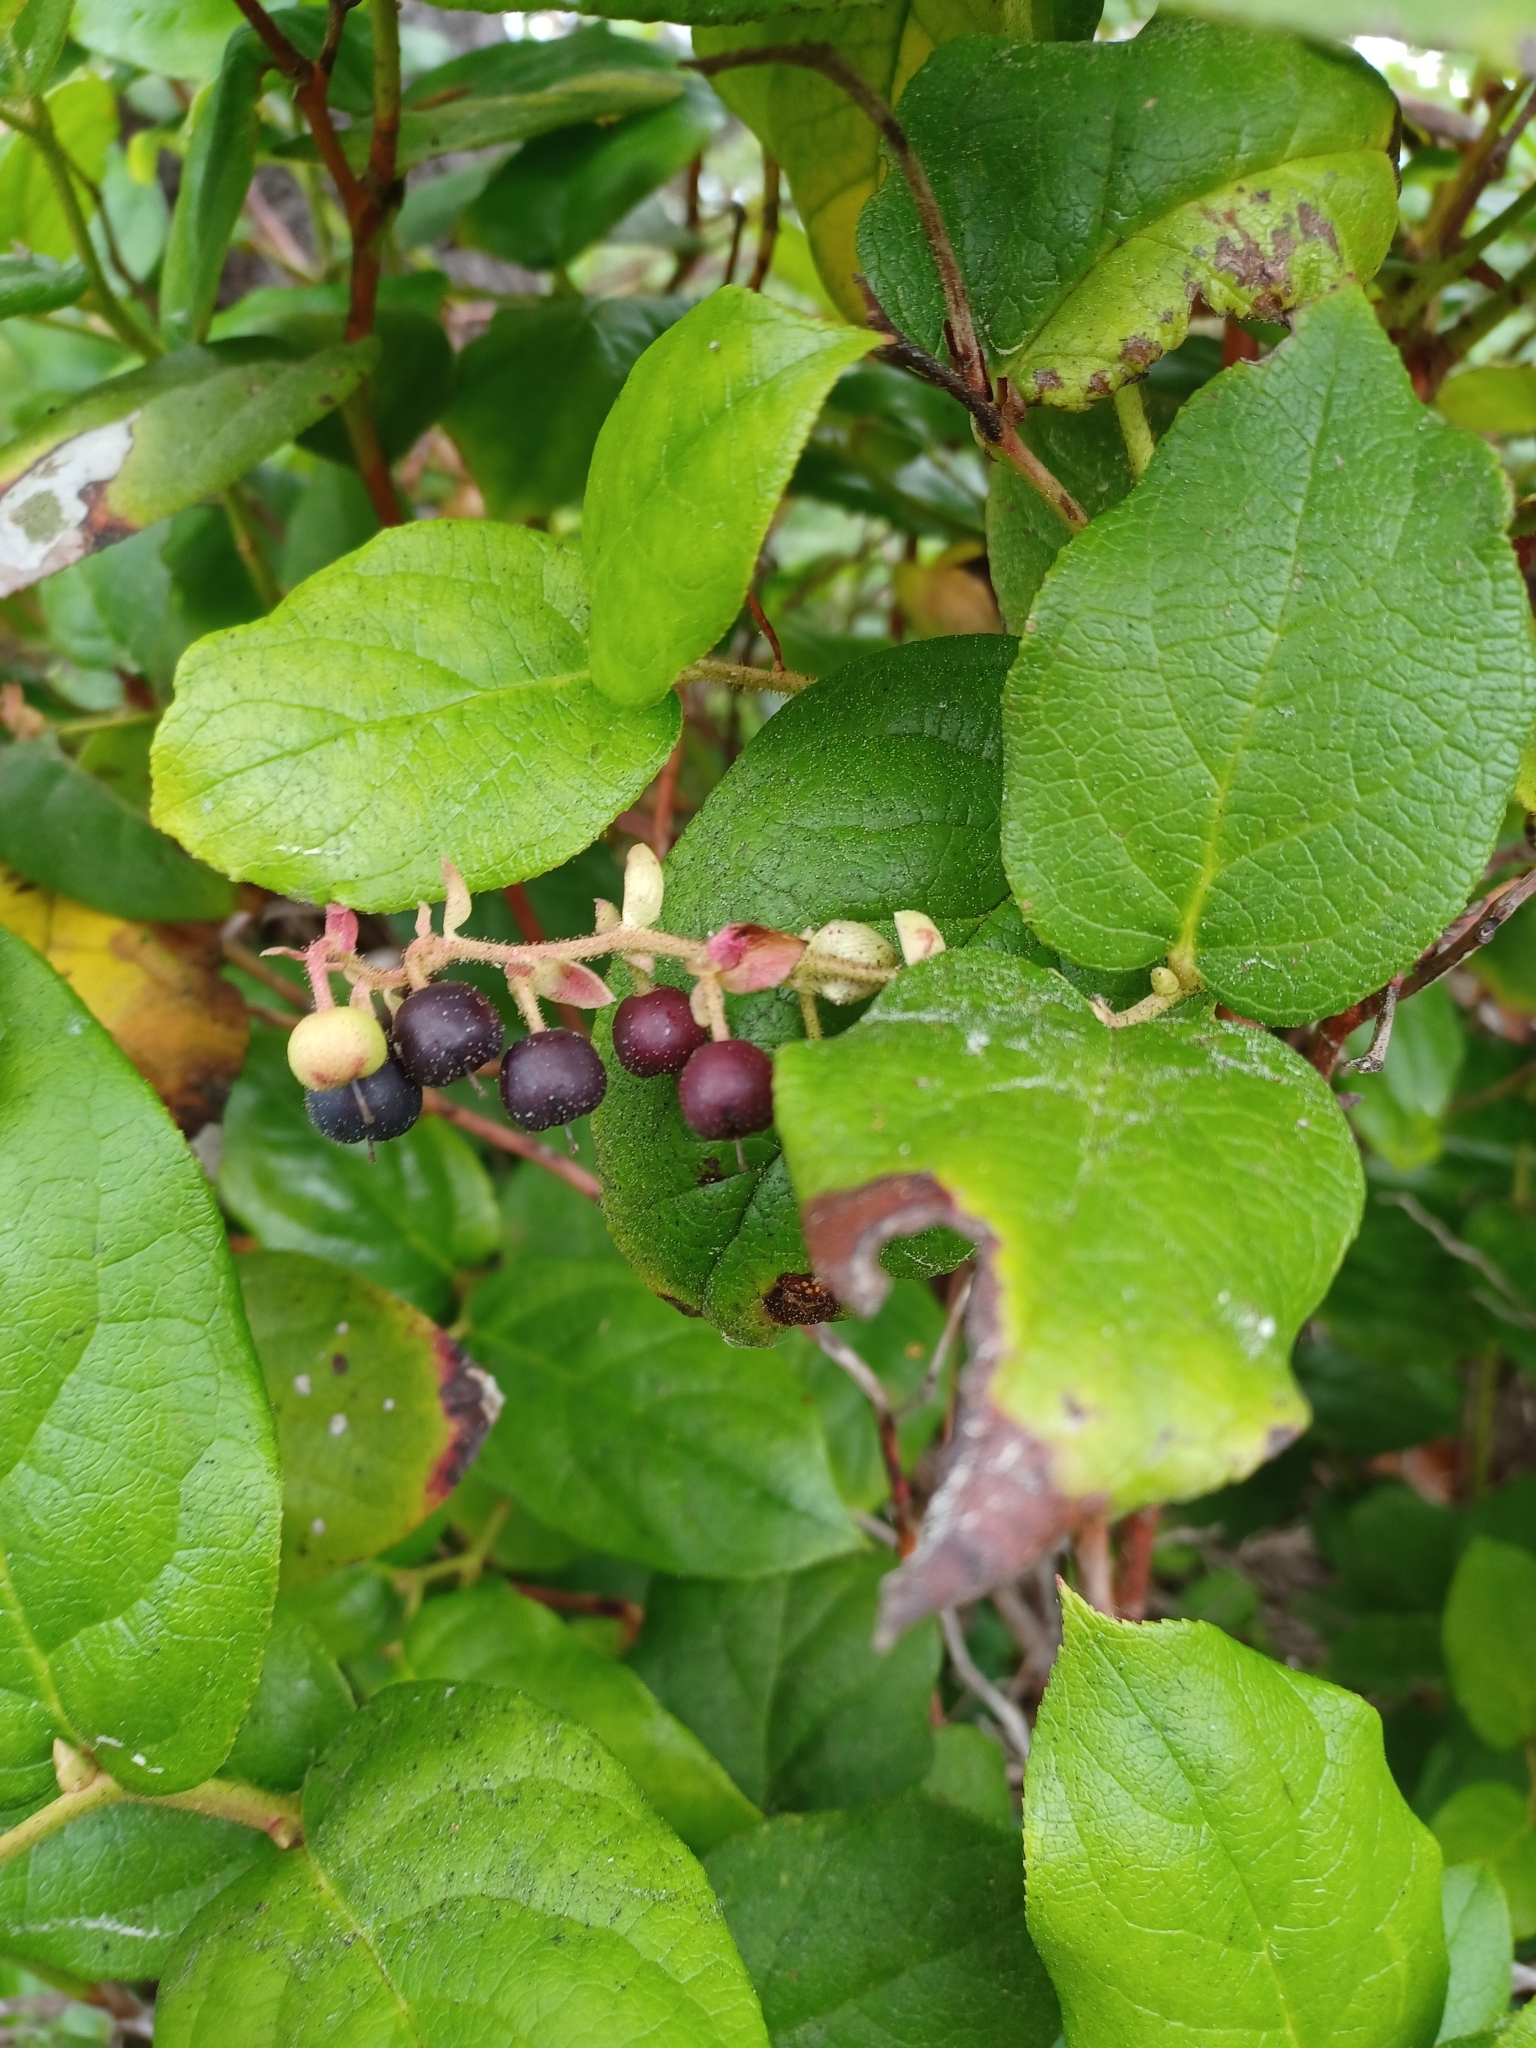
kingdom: Plantae
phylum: Tracheophyta
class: Magnoliopsida
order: Ericales
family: Ericaceae
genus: Gaultheria
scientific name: Gaultheria shallon
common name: Shallon
